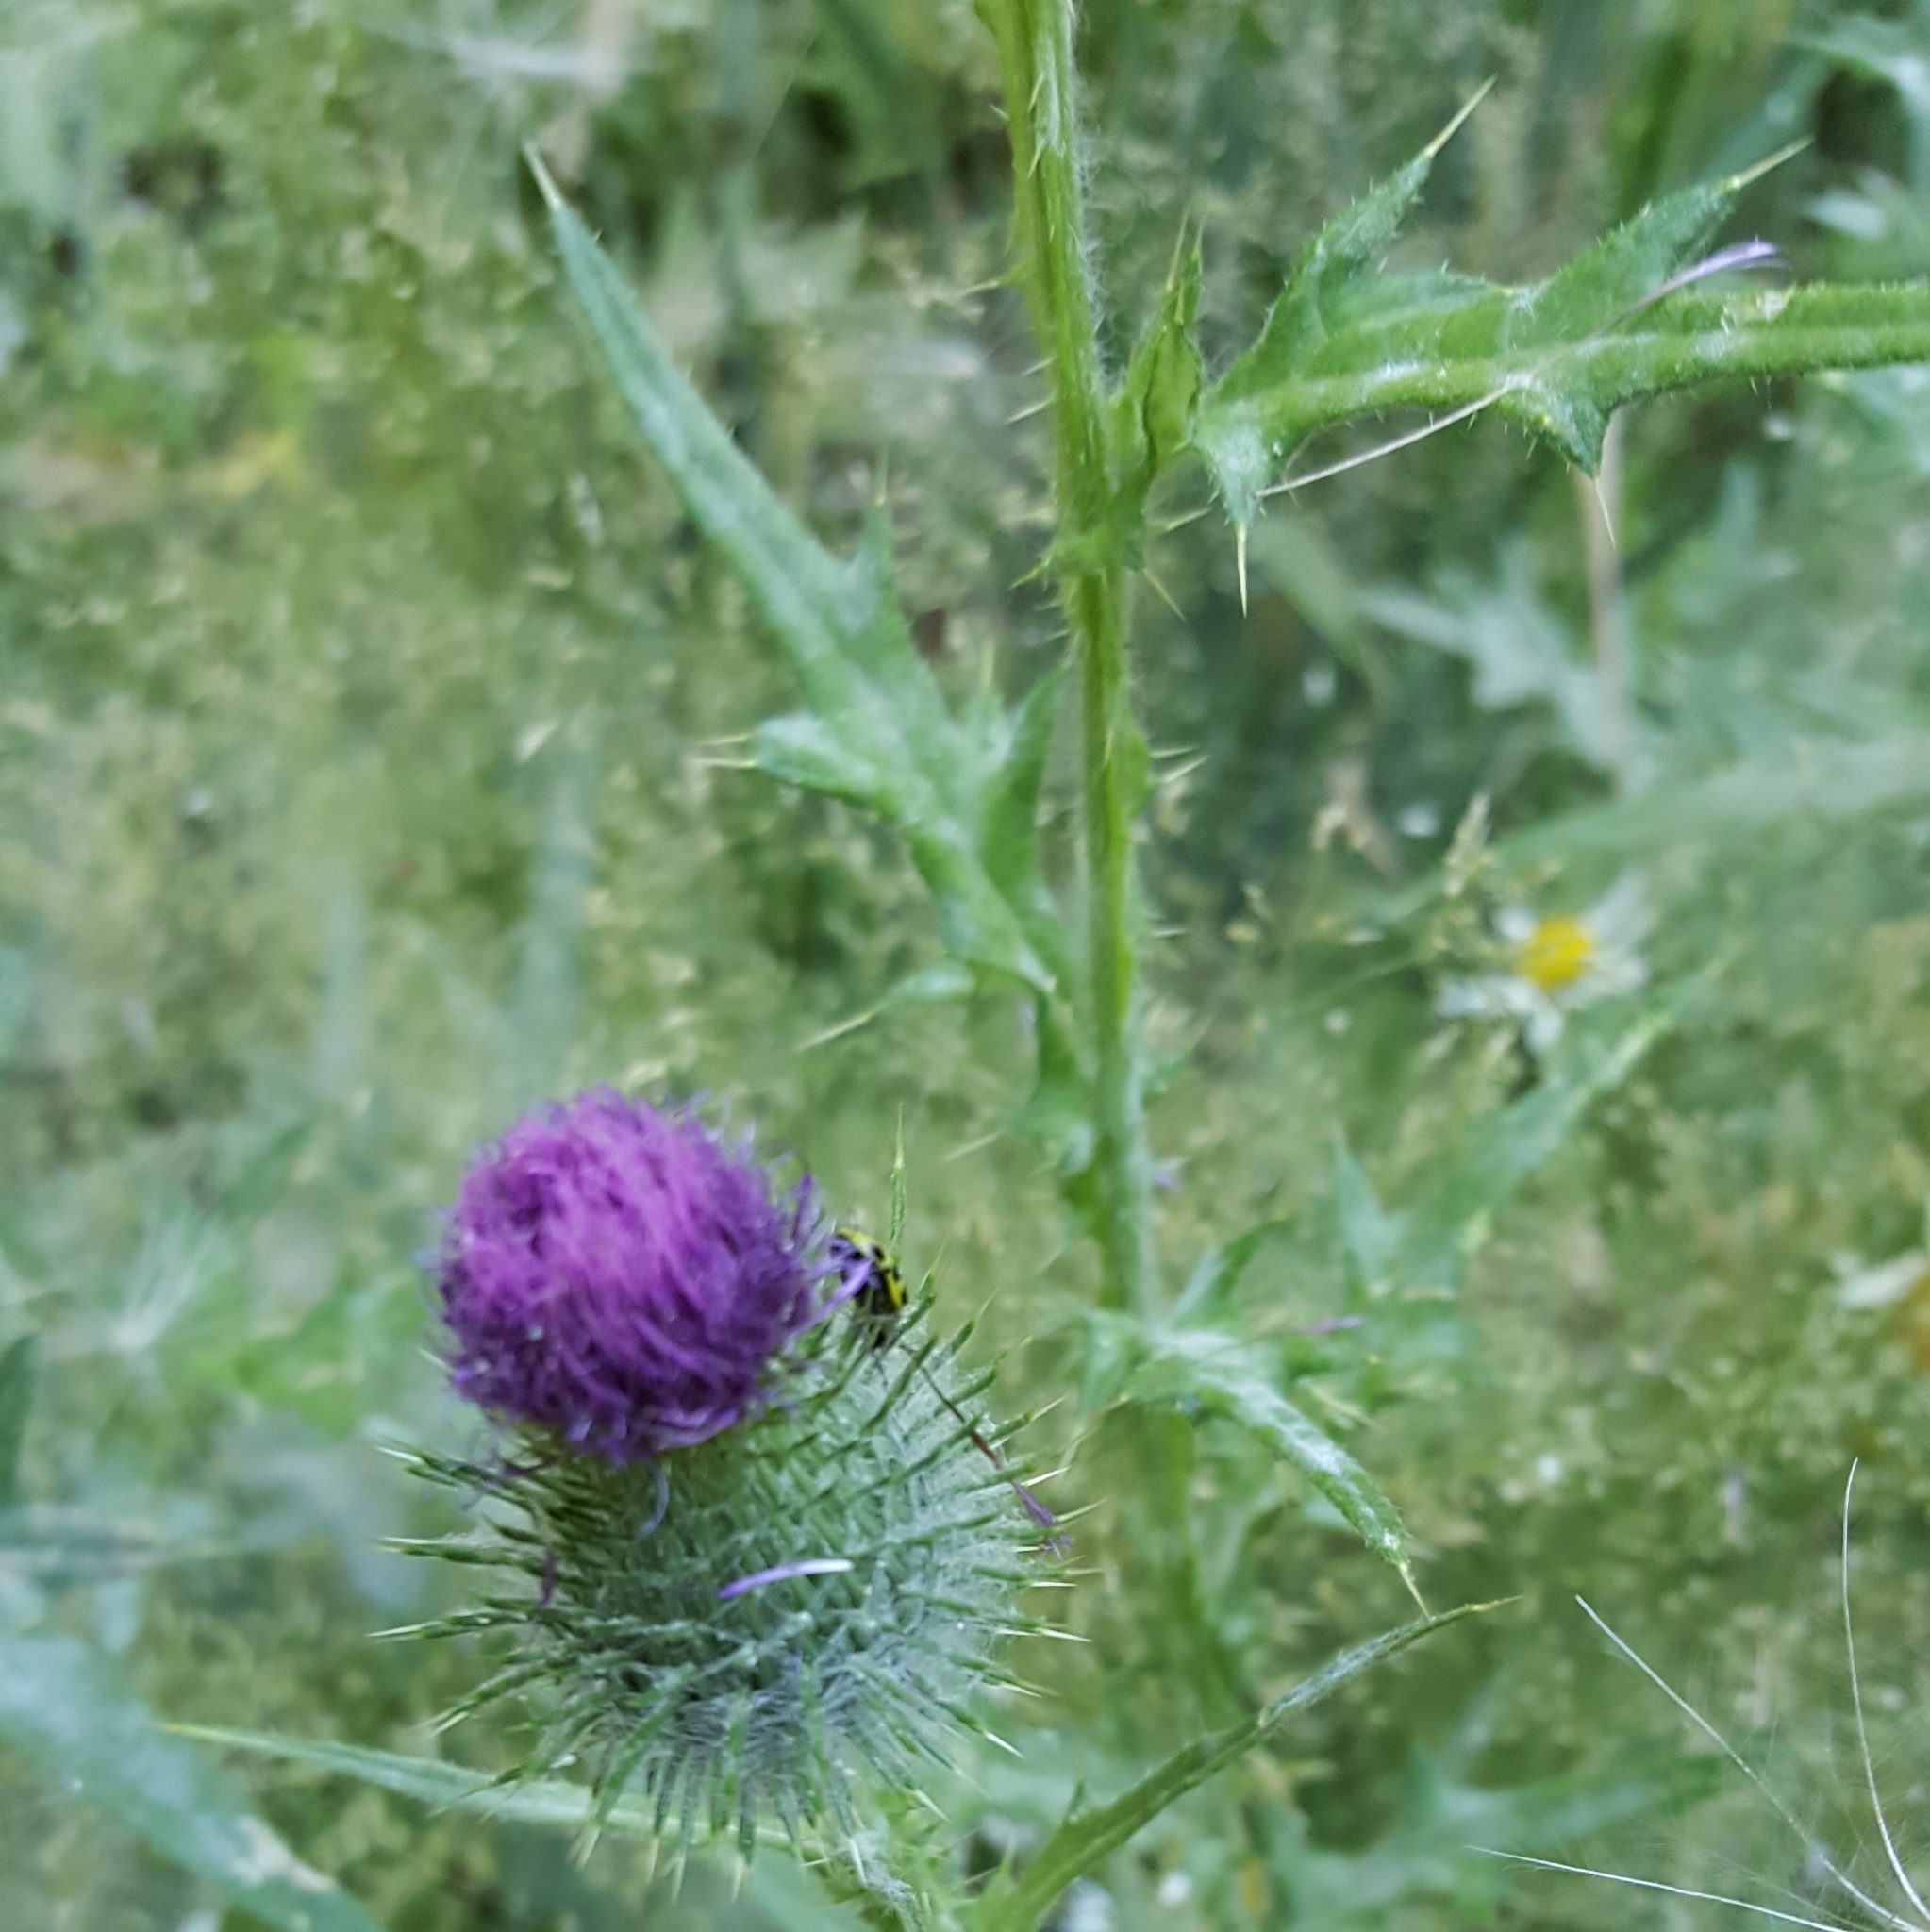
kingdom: Plantae
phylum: Tracheophyta
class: Magnoliopsida
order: Asterales
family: Asteraceae
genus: Cirsium
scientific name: Cirsium vulgare
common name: Bull thistle
